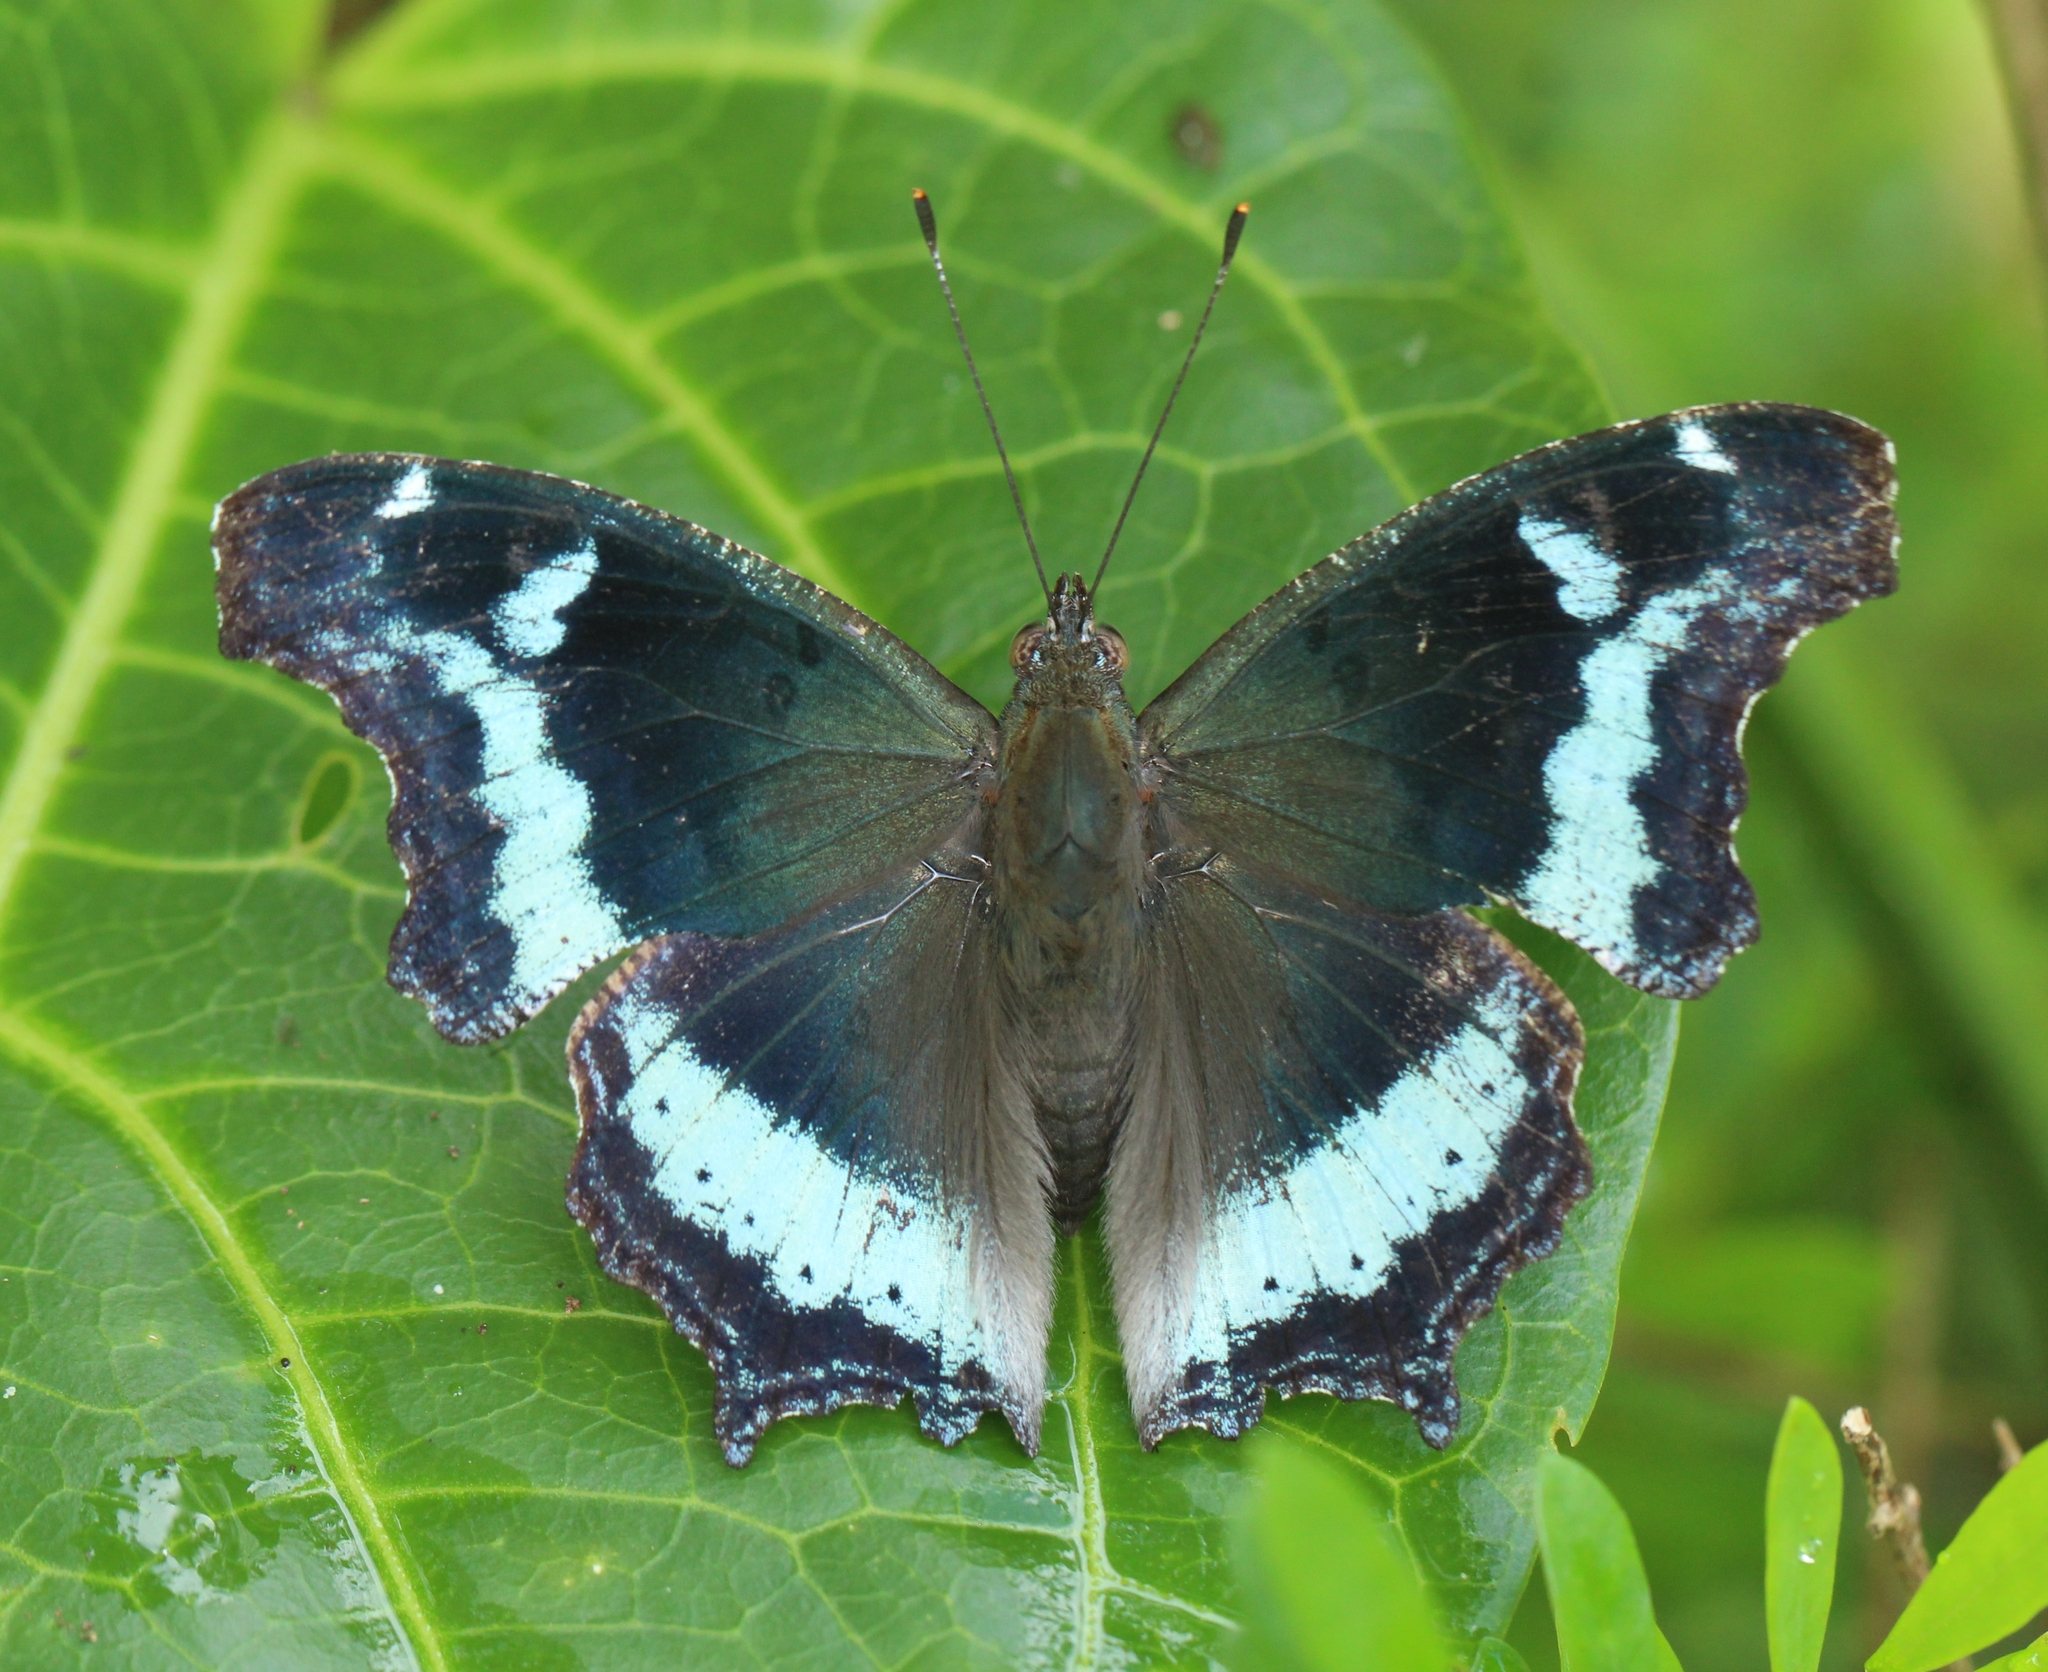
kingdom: Animalia
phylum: Arthropoda
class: Insecta
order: Lepidoptera
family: Nymphalidae
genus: Vanessa
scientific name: Vanessa Kaniska canace
